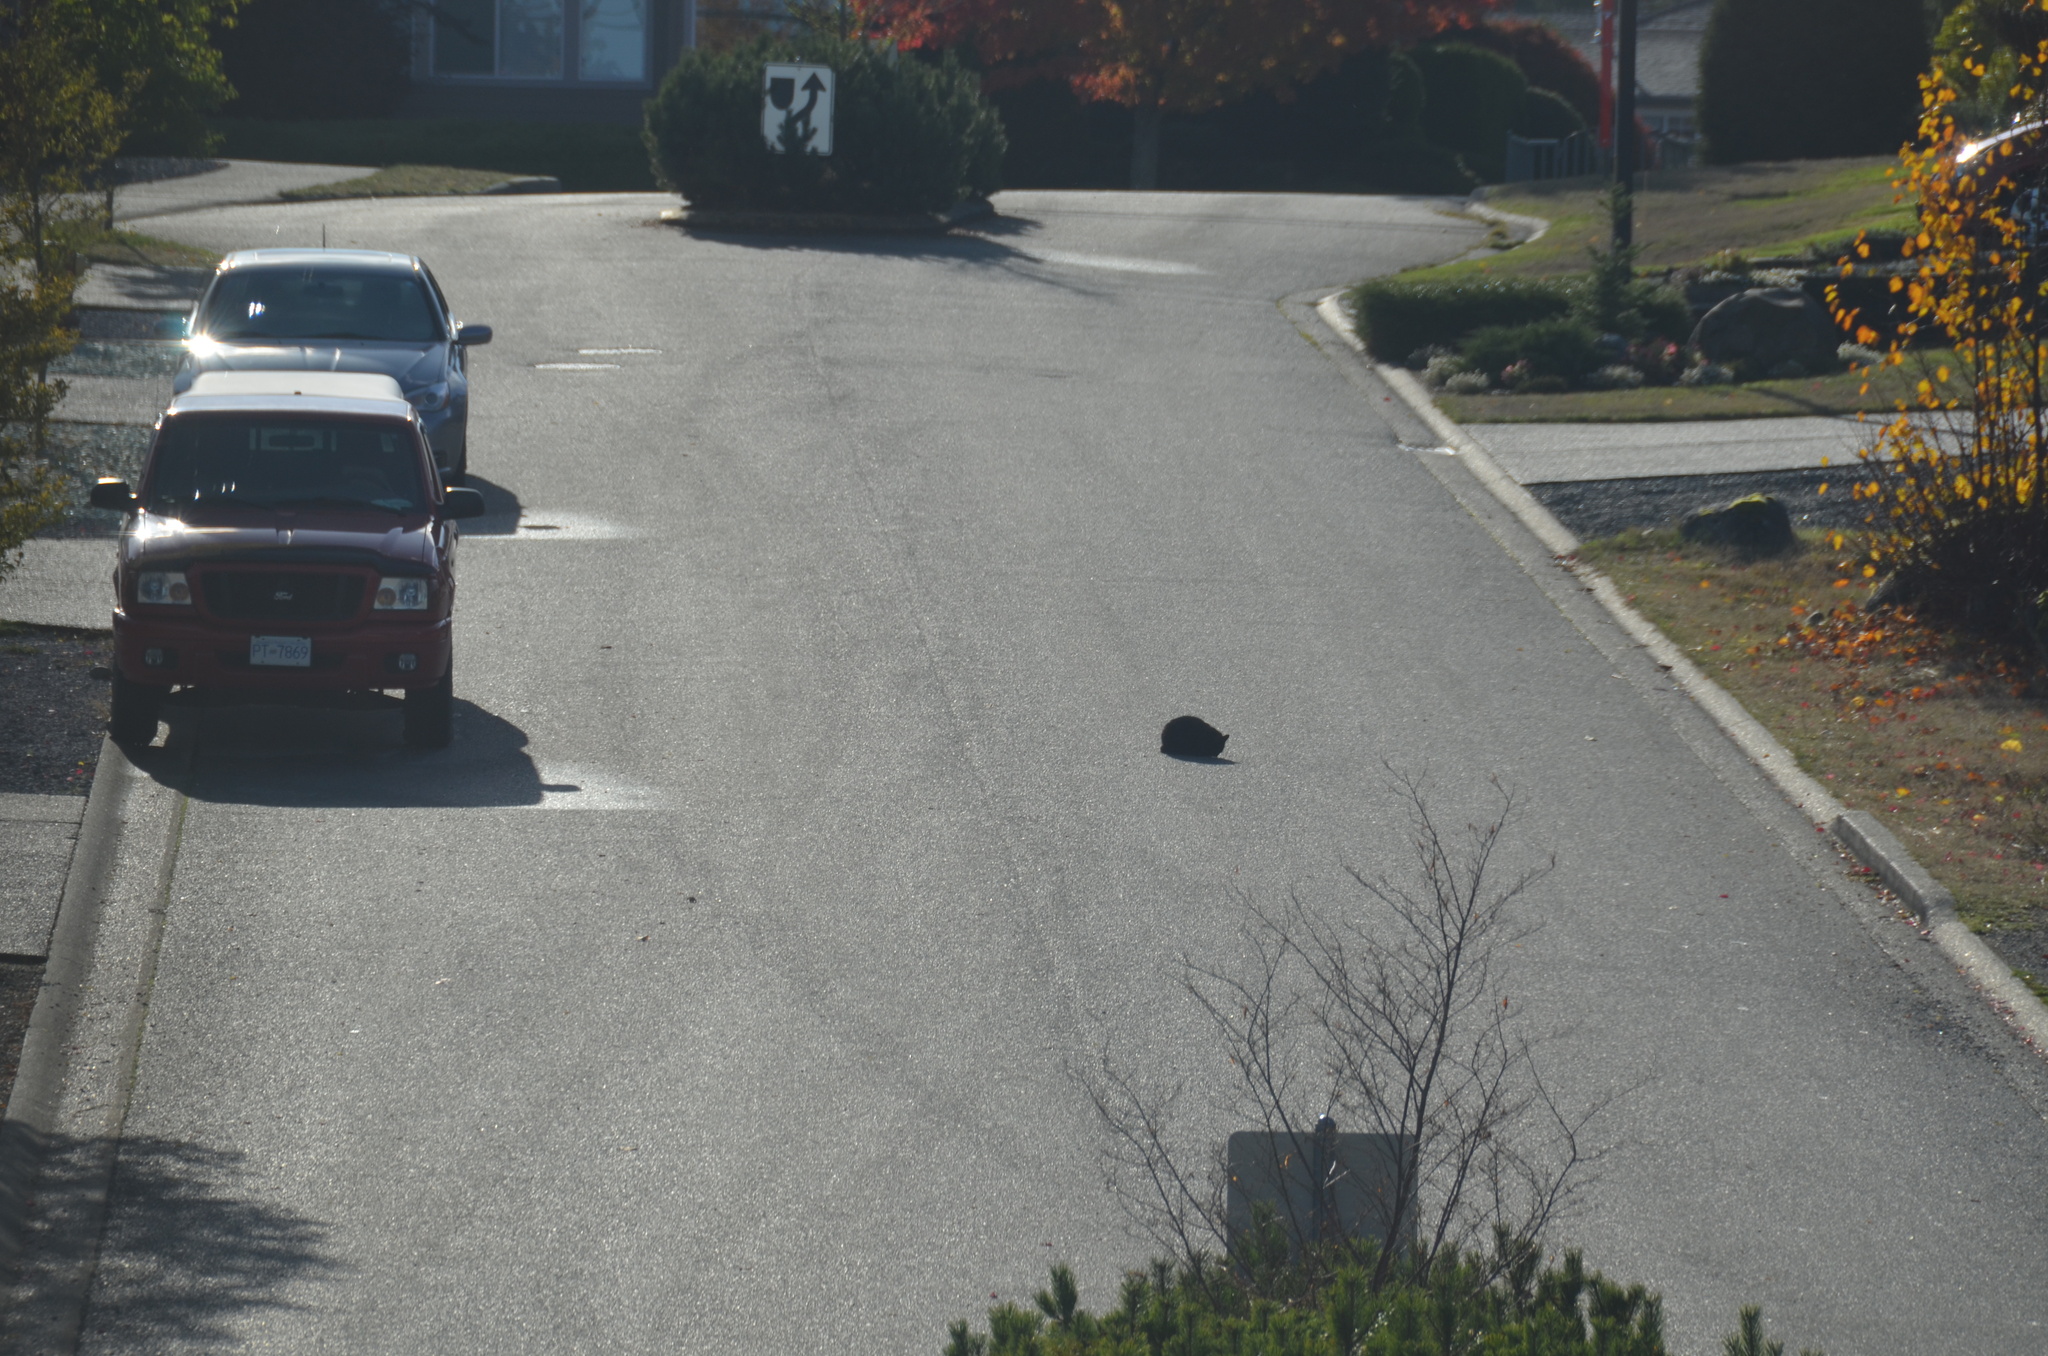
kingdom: Animalia
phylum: Chordata
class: Mammalia
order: Carnivora
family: Felidae
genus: Felis
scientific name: Felis catus
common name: Domestic cat
